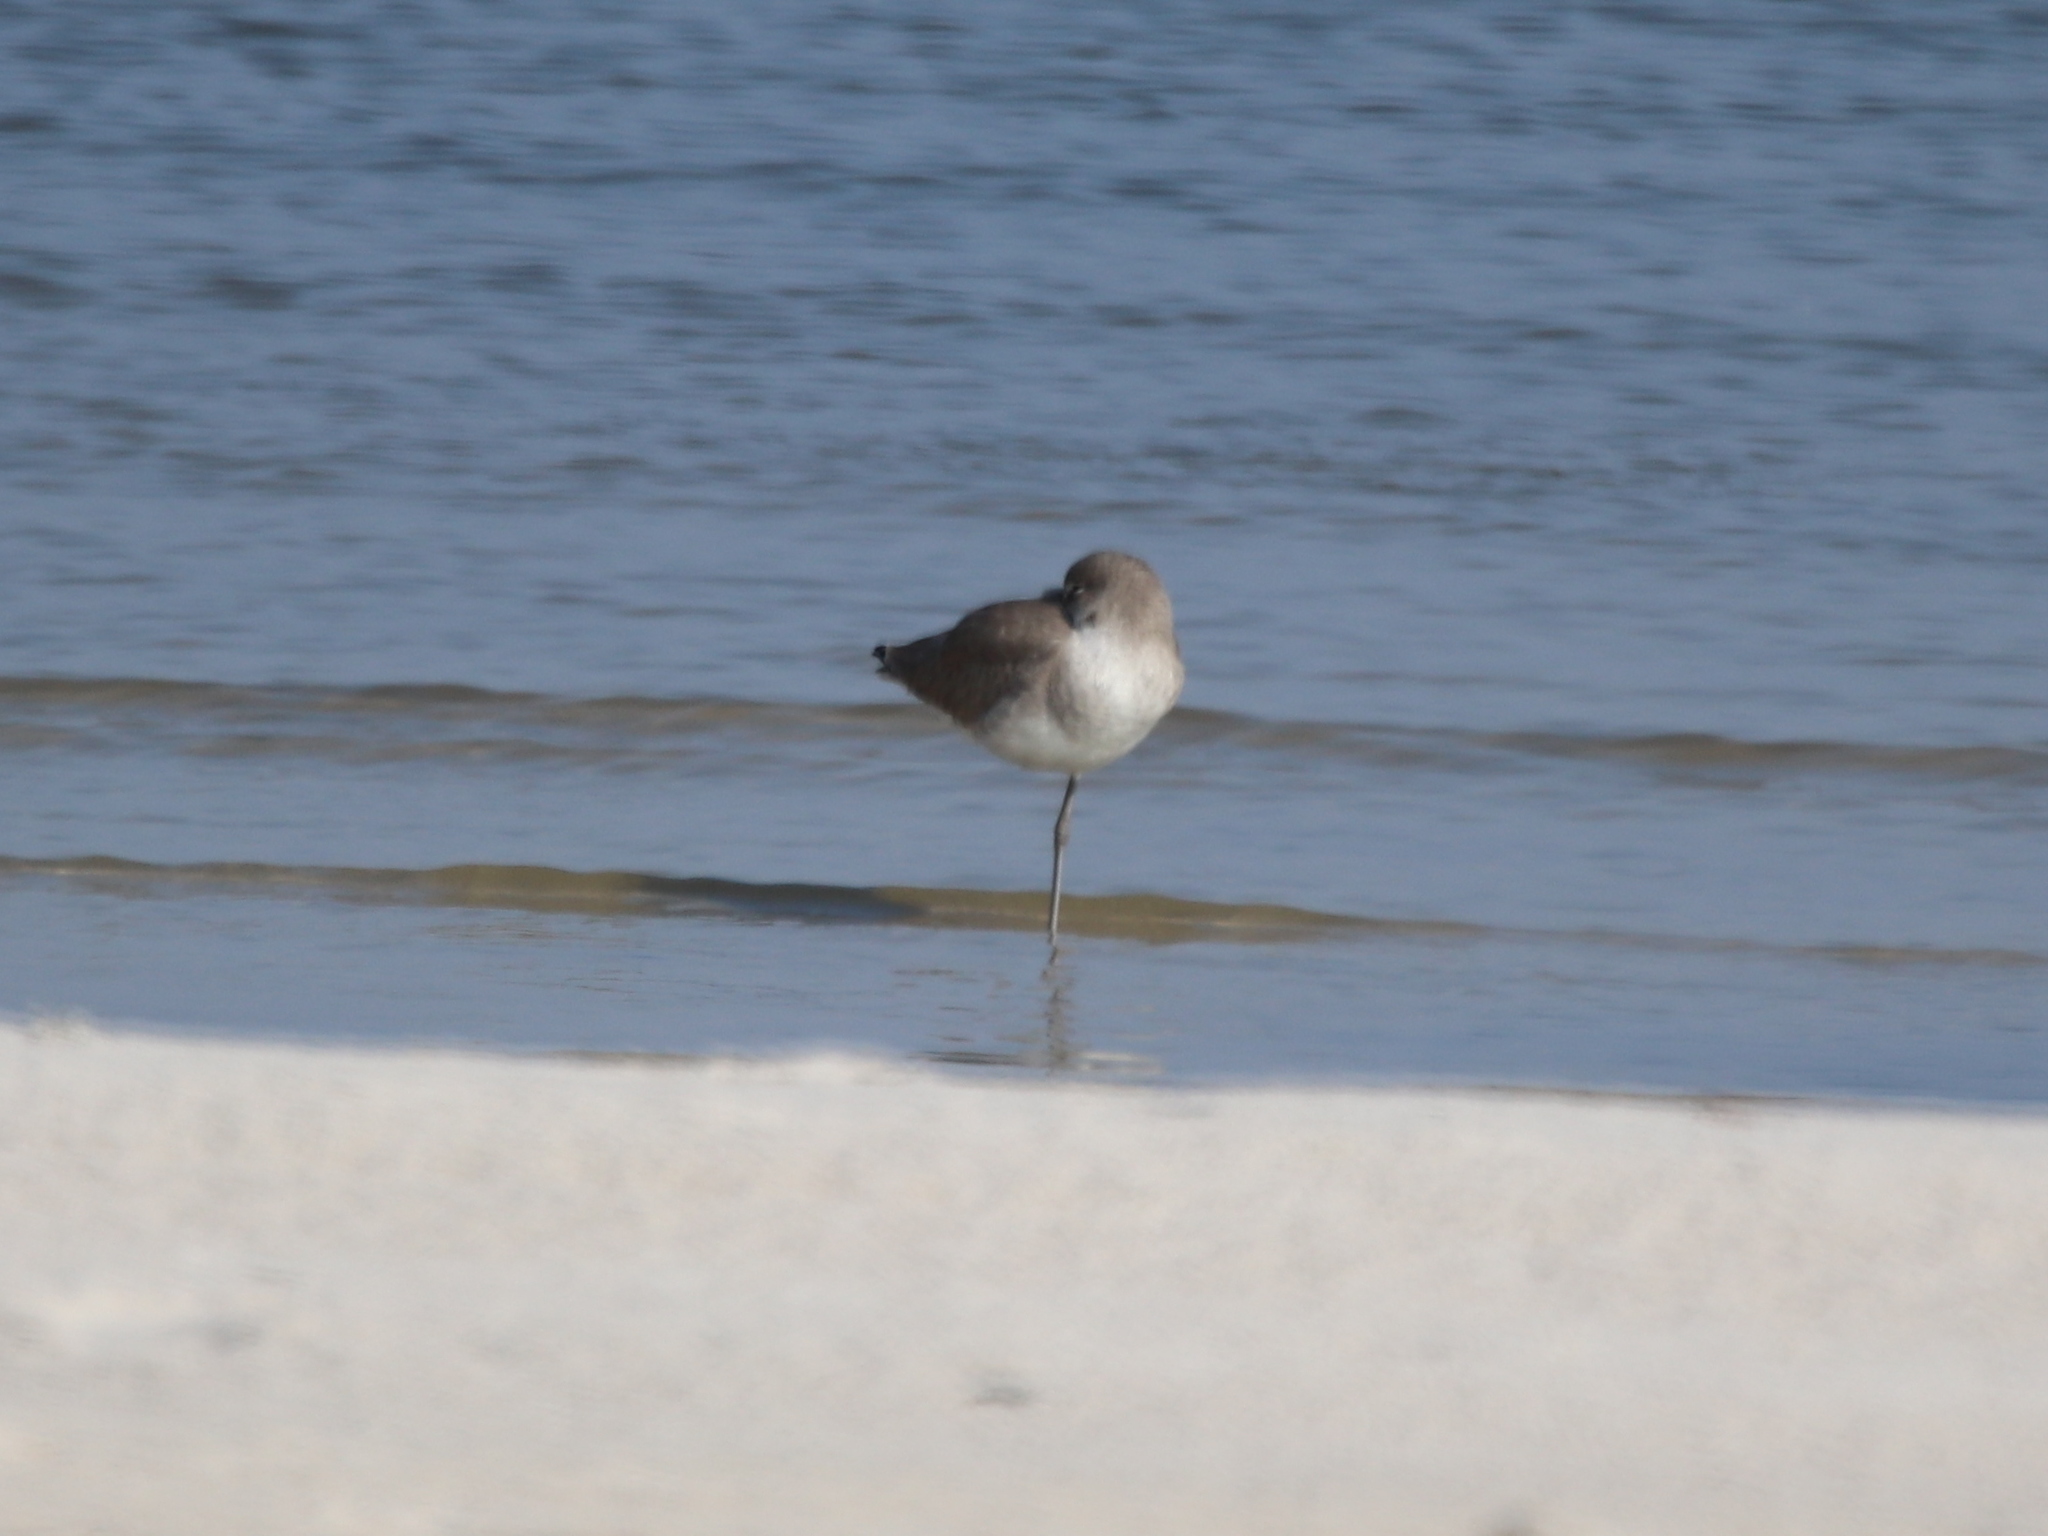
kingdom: Animalia
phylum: Chordata
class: Aves
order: Charadriiformes
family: Scolopacidae
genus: Tringa
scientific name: Tringa semipalmata
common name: Willet
